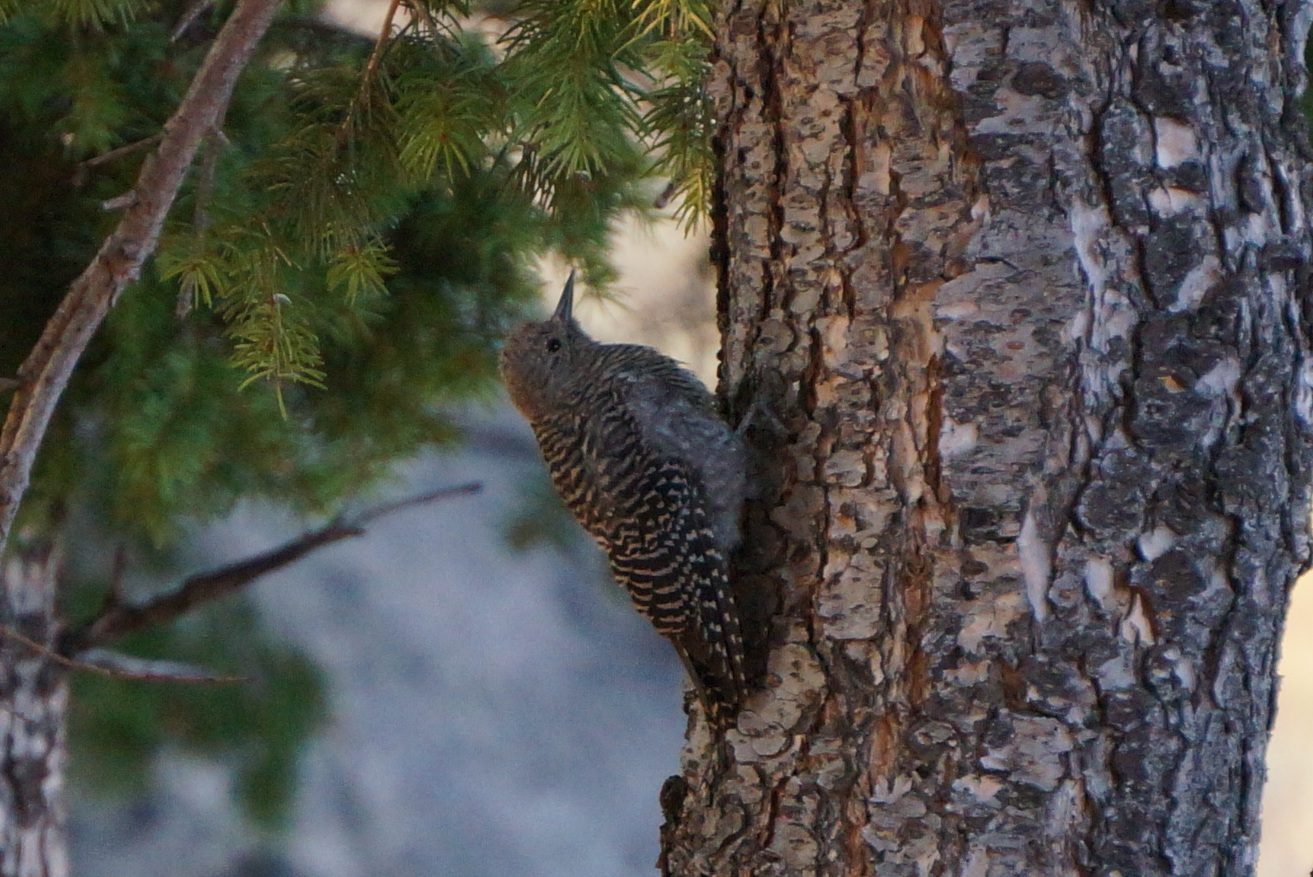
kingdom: Animalia
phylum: Chordata
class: Aves
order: Piciformes
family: Picidae
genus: Sphyrapicus
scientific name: Sphyrapicus thyroideus
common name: Williamson's sapsucker
